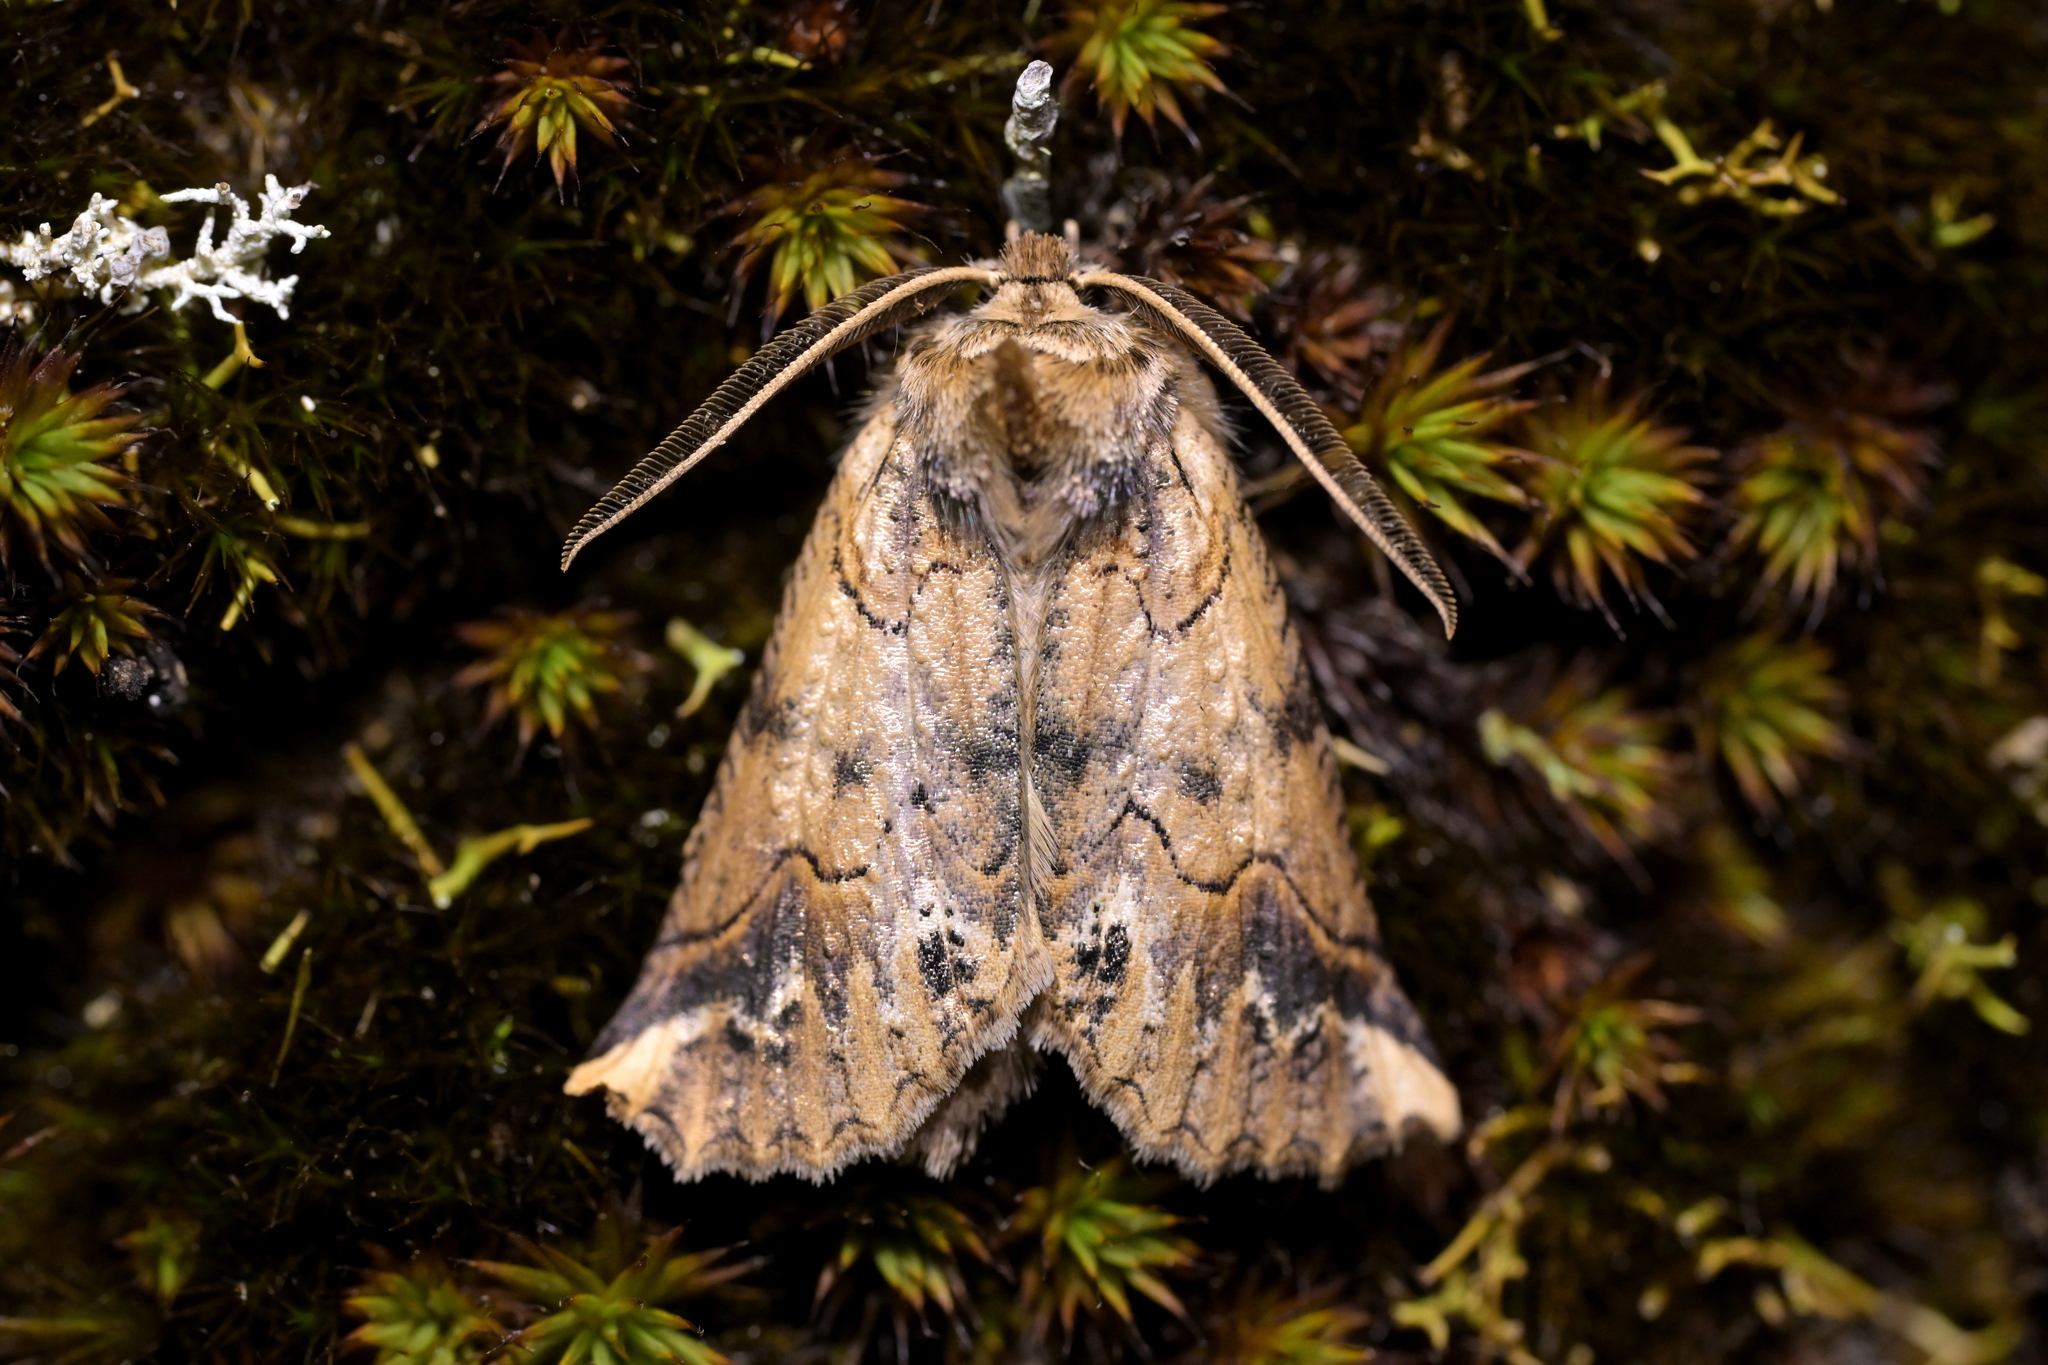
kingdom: Animalia
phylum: Arthropoda
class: Insecta
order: Lepidoptera
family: Geometridae
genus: Declana
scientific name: Declana
